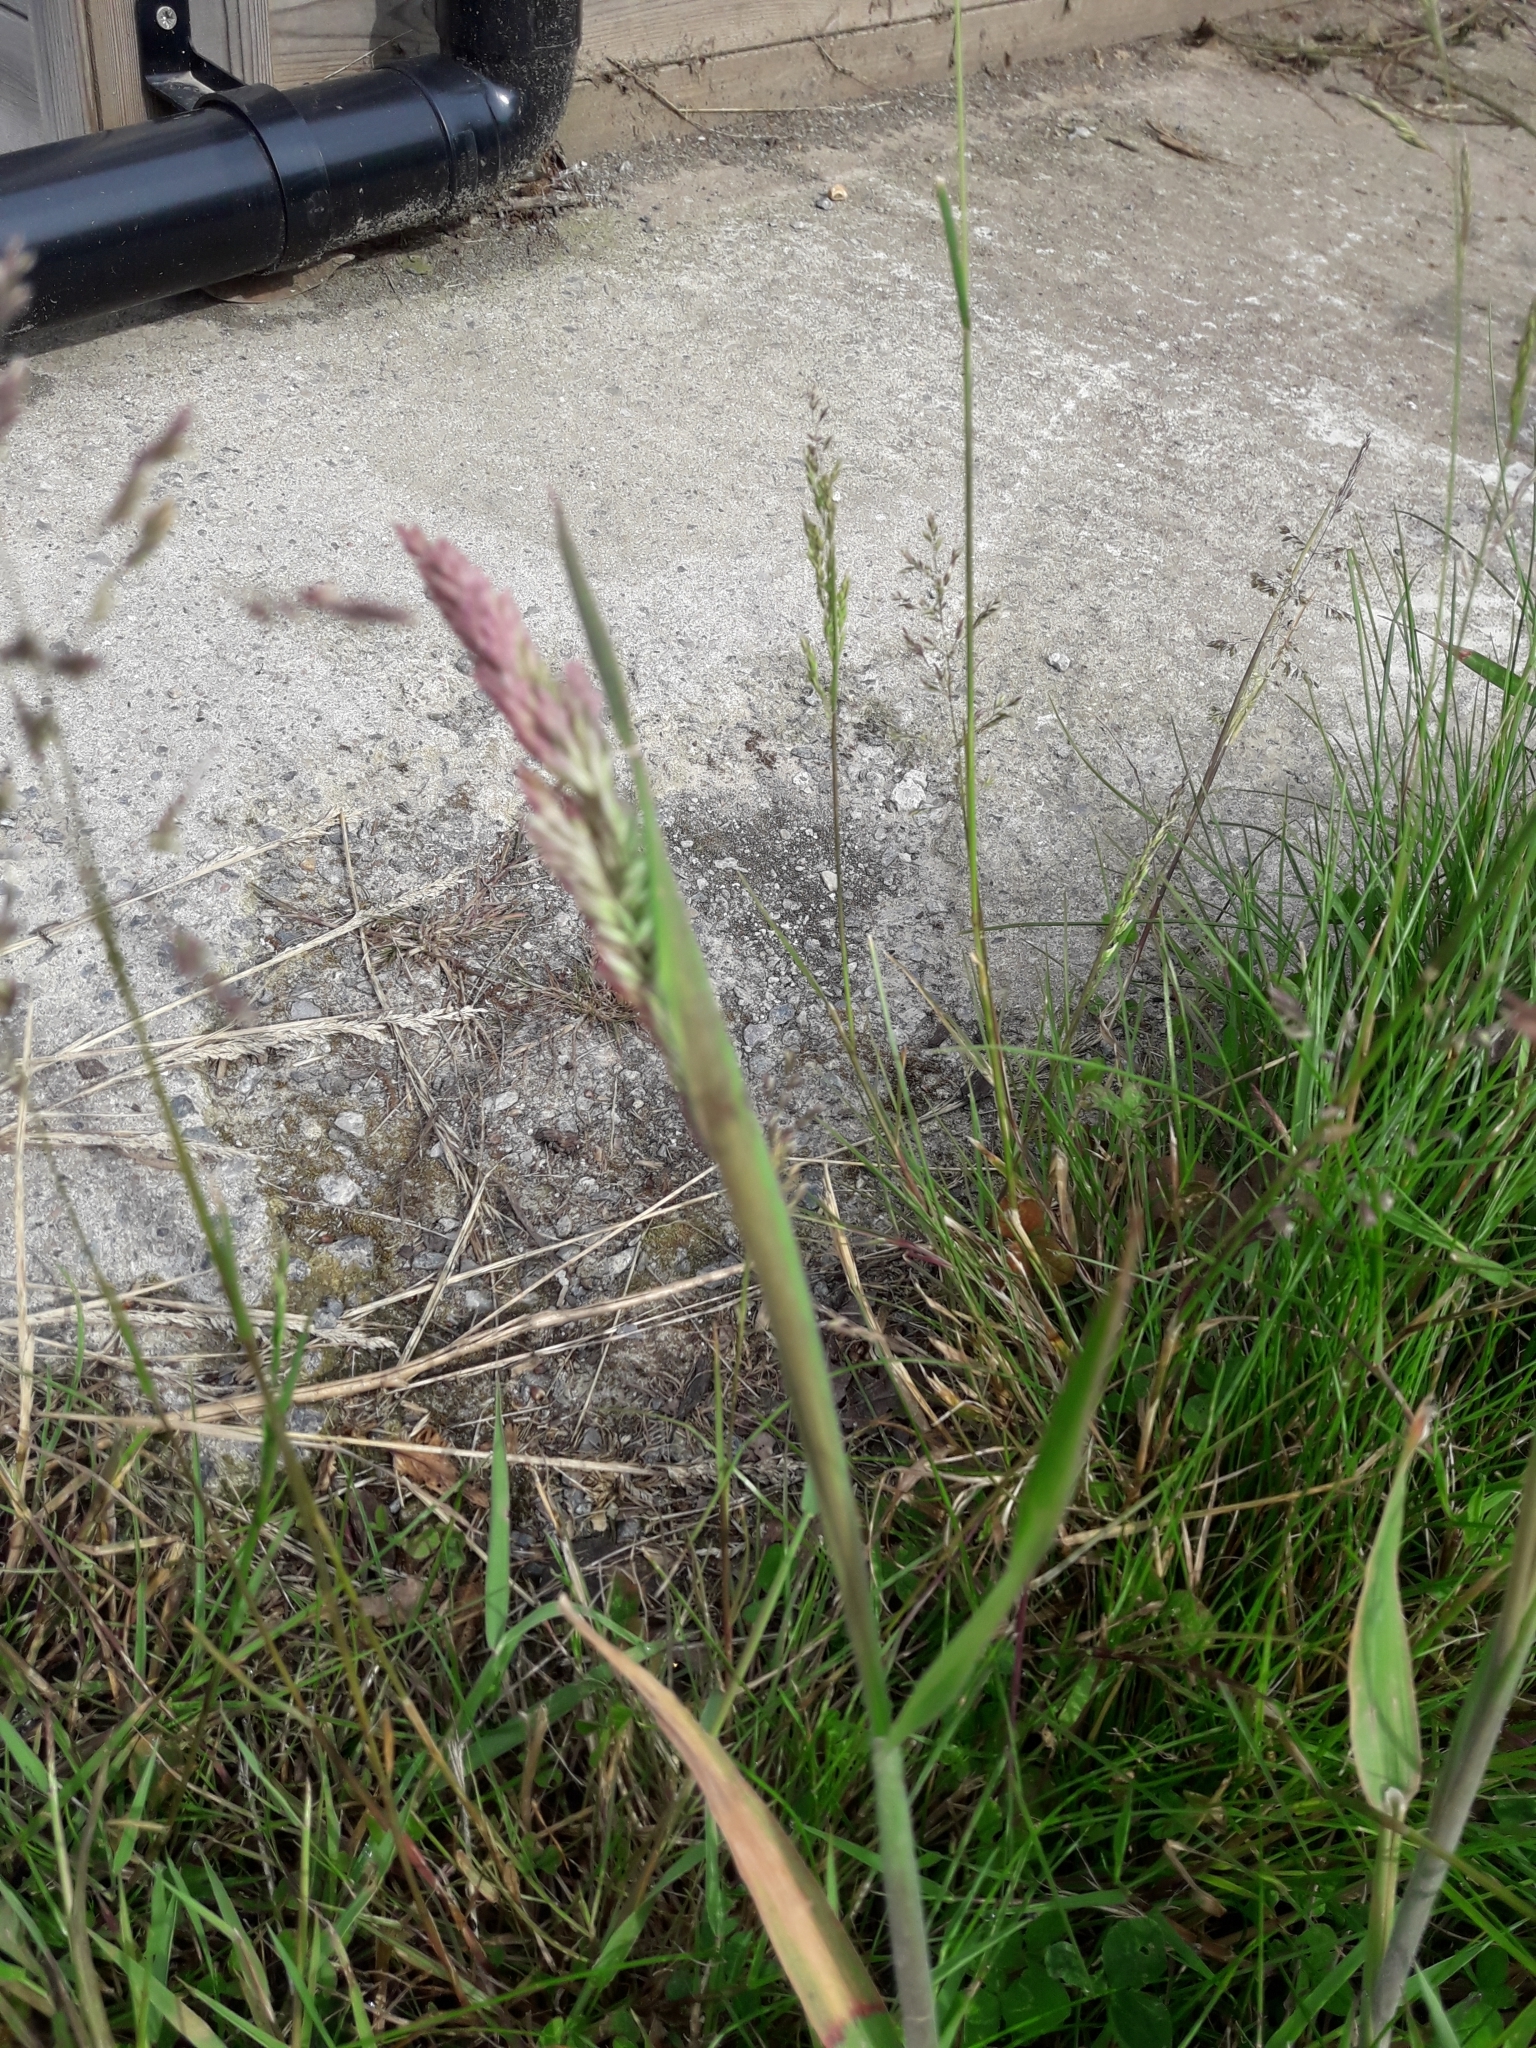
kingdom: Plantae
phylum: Tracheophyta
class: Liliopsida
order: Poales
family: Poaceae
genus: Holcus
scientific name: Holcus lanatus
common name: Yorkshire-fog
